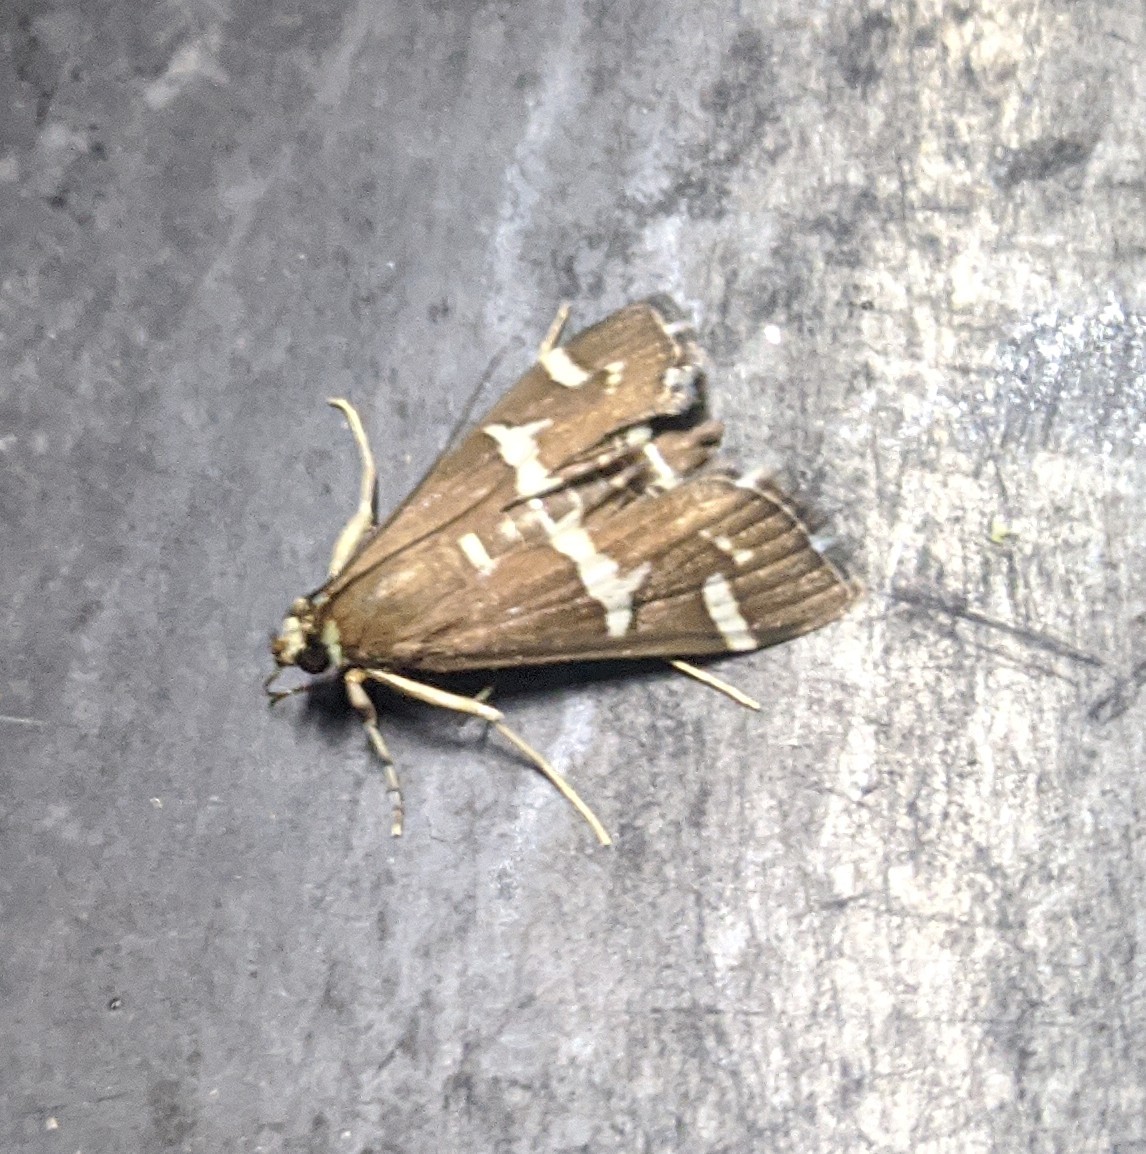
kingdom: Animalia
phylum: Arthropoda
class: Insecta
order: Lepidoptera
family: Crambidae
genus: Spoladea
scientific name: Spoladea recurvalis
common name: Beet webworm moth
